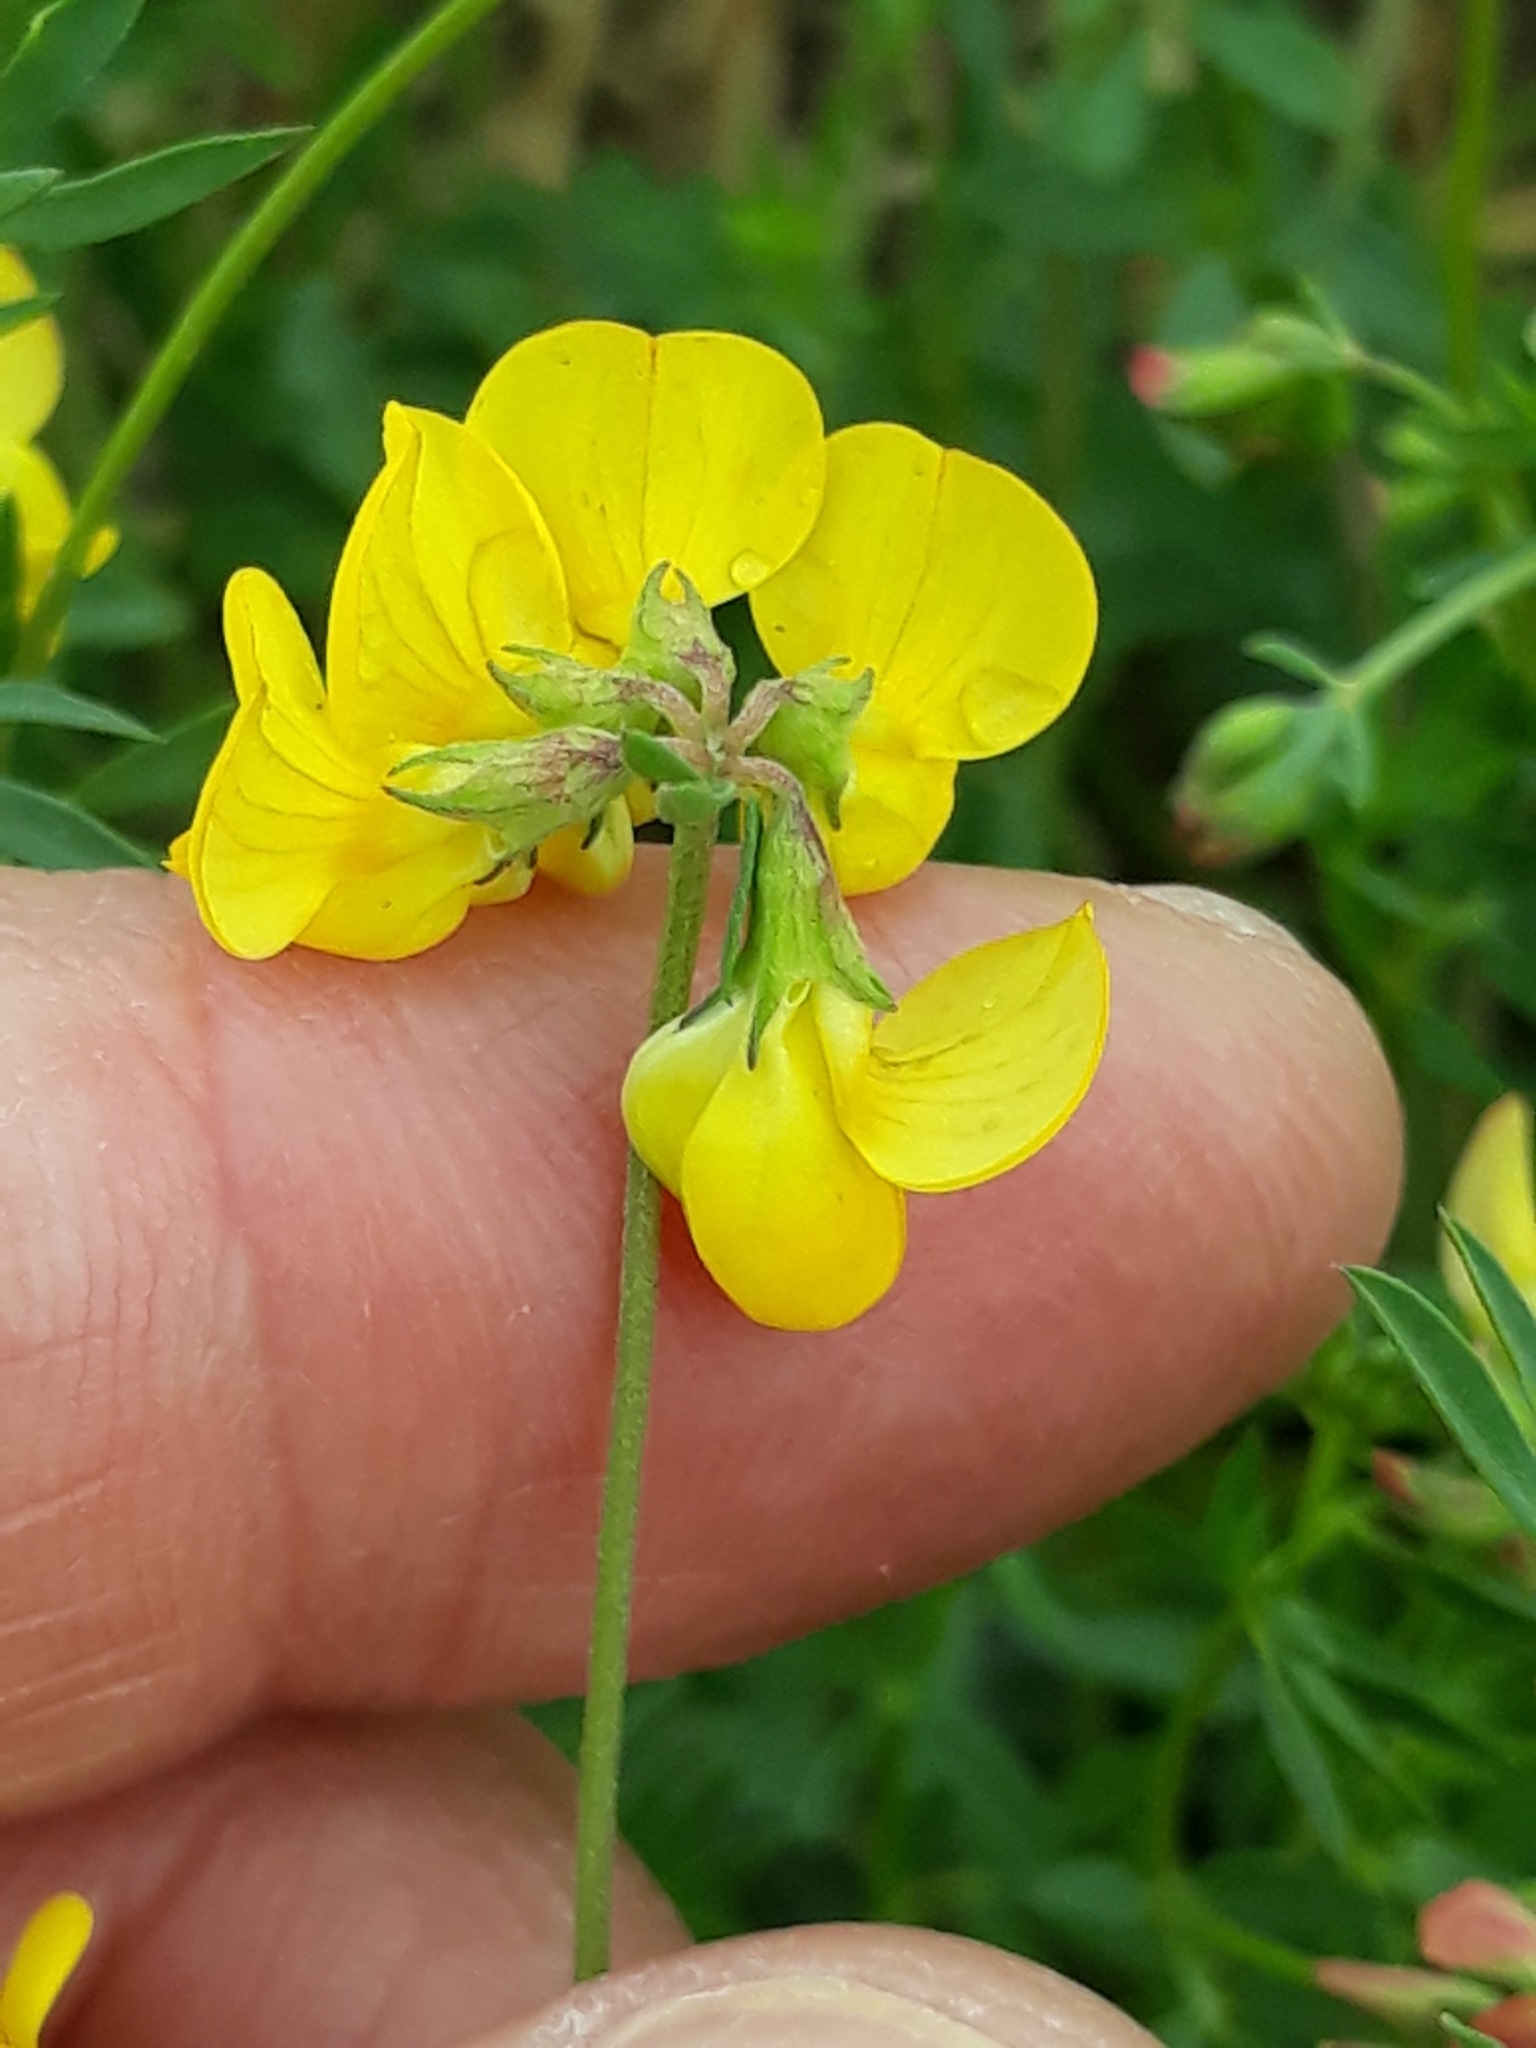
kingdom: Plantae
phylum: Tracheophyta
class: Magnoliopsida
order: Fabales
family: Fabaceae
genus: Lotus
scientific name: Lotus corniculatus
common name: Common bird's-foot-trefoil
